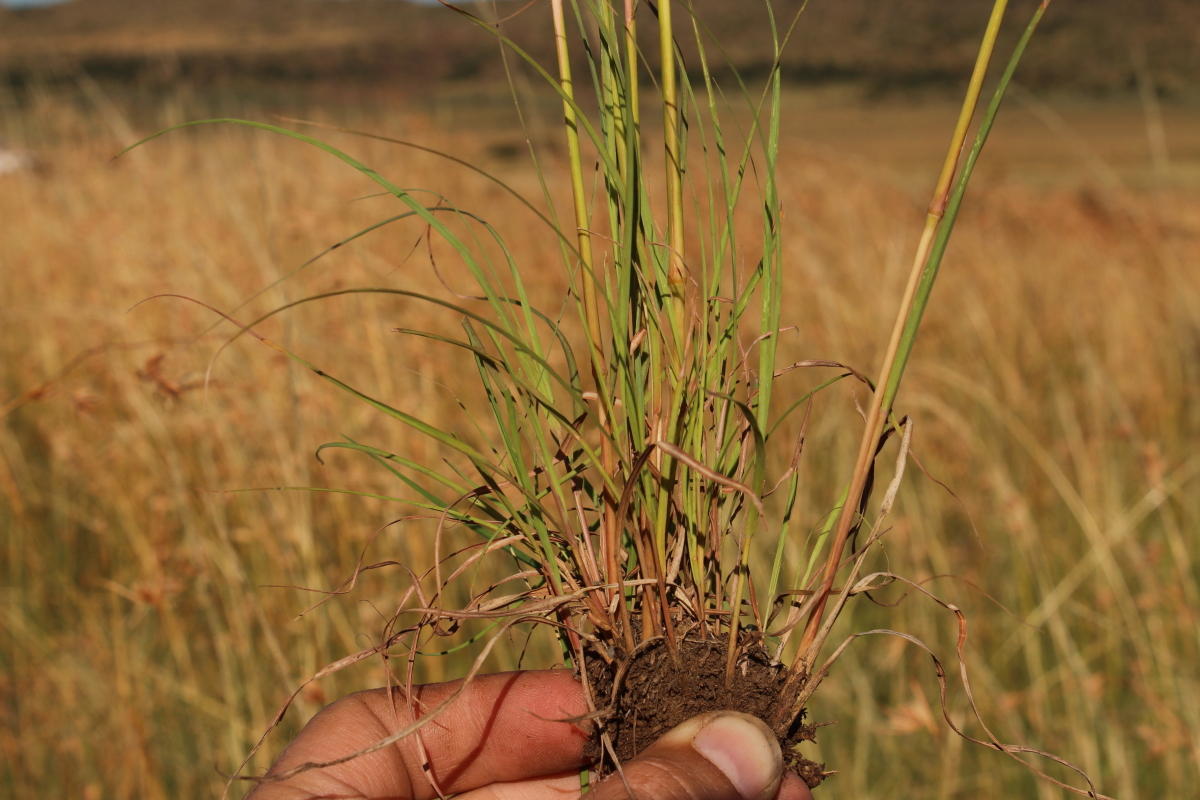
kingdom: Plantae
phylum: Tracheophyta
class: Liliopsida
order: Poales
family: Poaceae
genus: Cymbopogon
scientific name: Cymbopogon pospischilii
